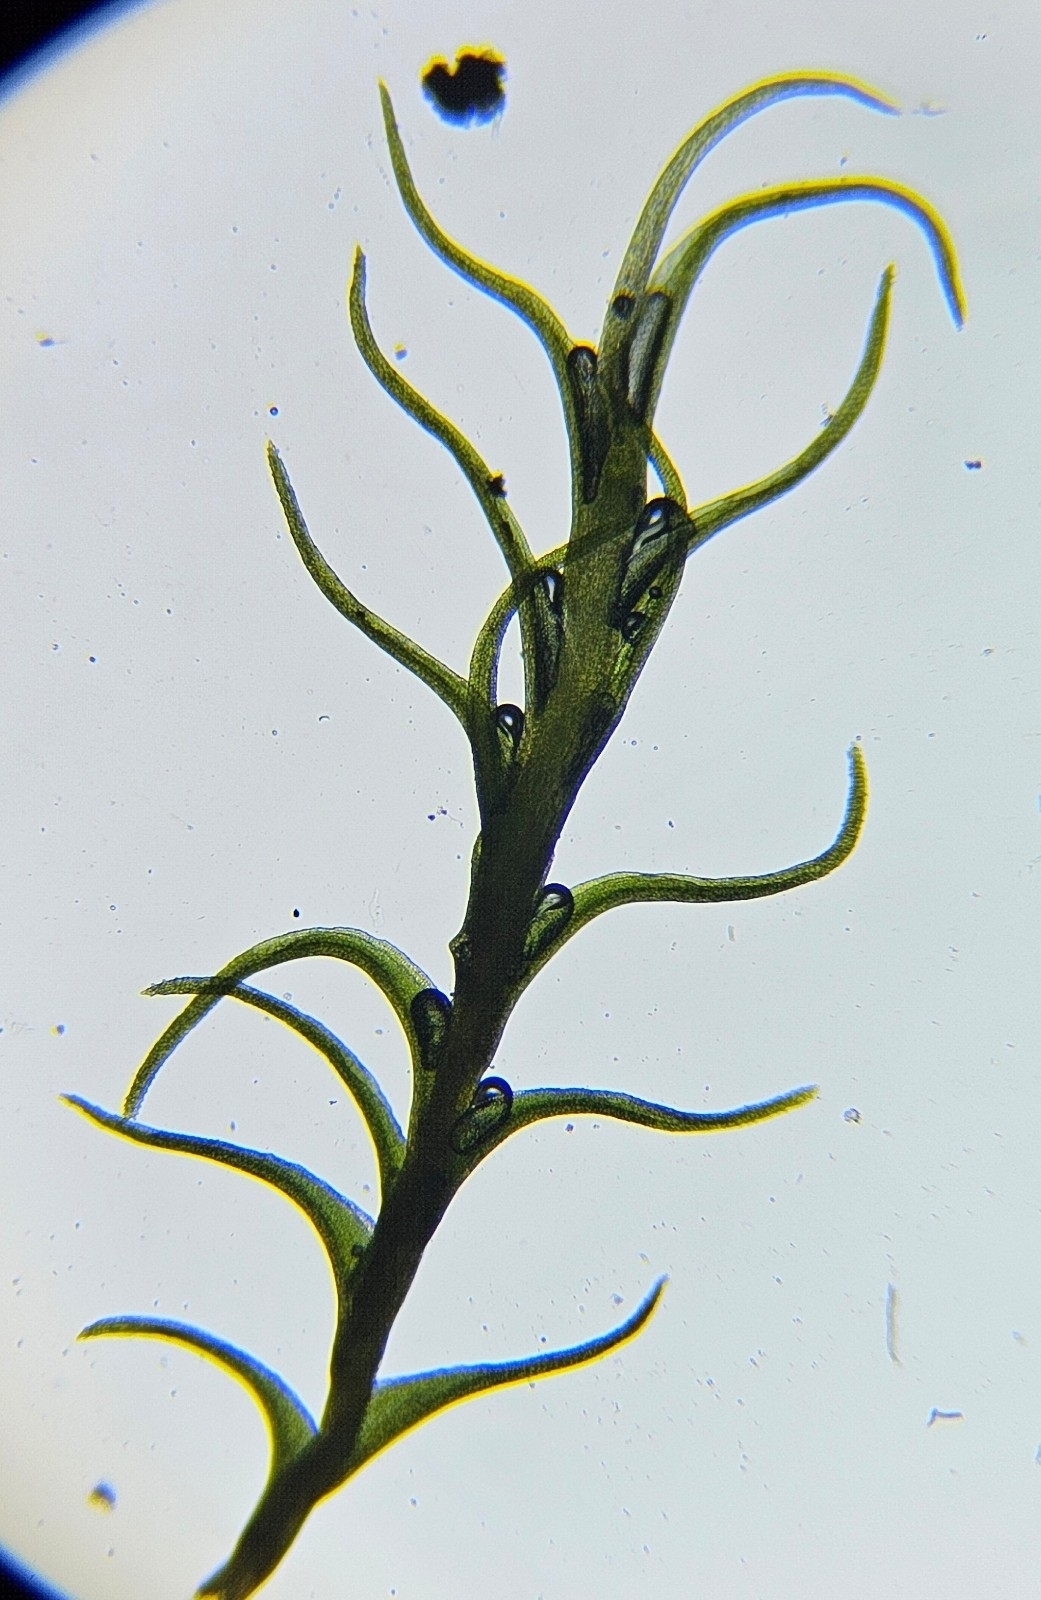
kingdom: Plantae
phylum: Bryophyta
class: Bryopsida
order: Scouleriales
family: Flexitrichaceae
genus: Flexitrichum
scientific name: Flexitrichum flexicaule
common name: Bendy ditrichum
